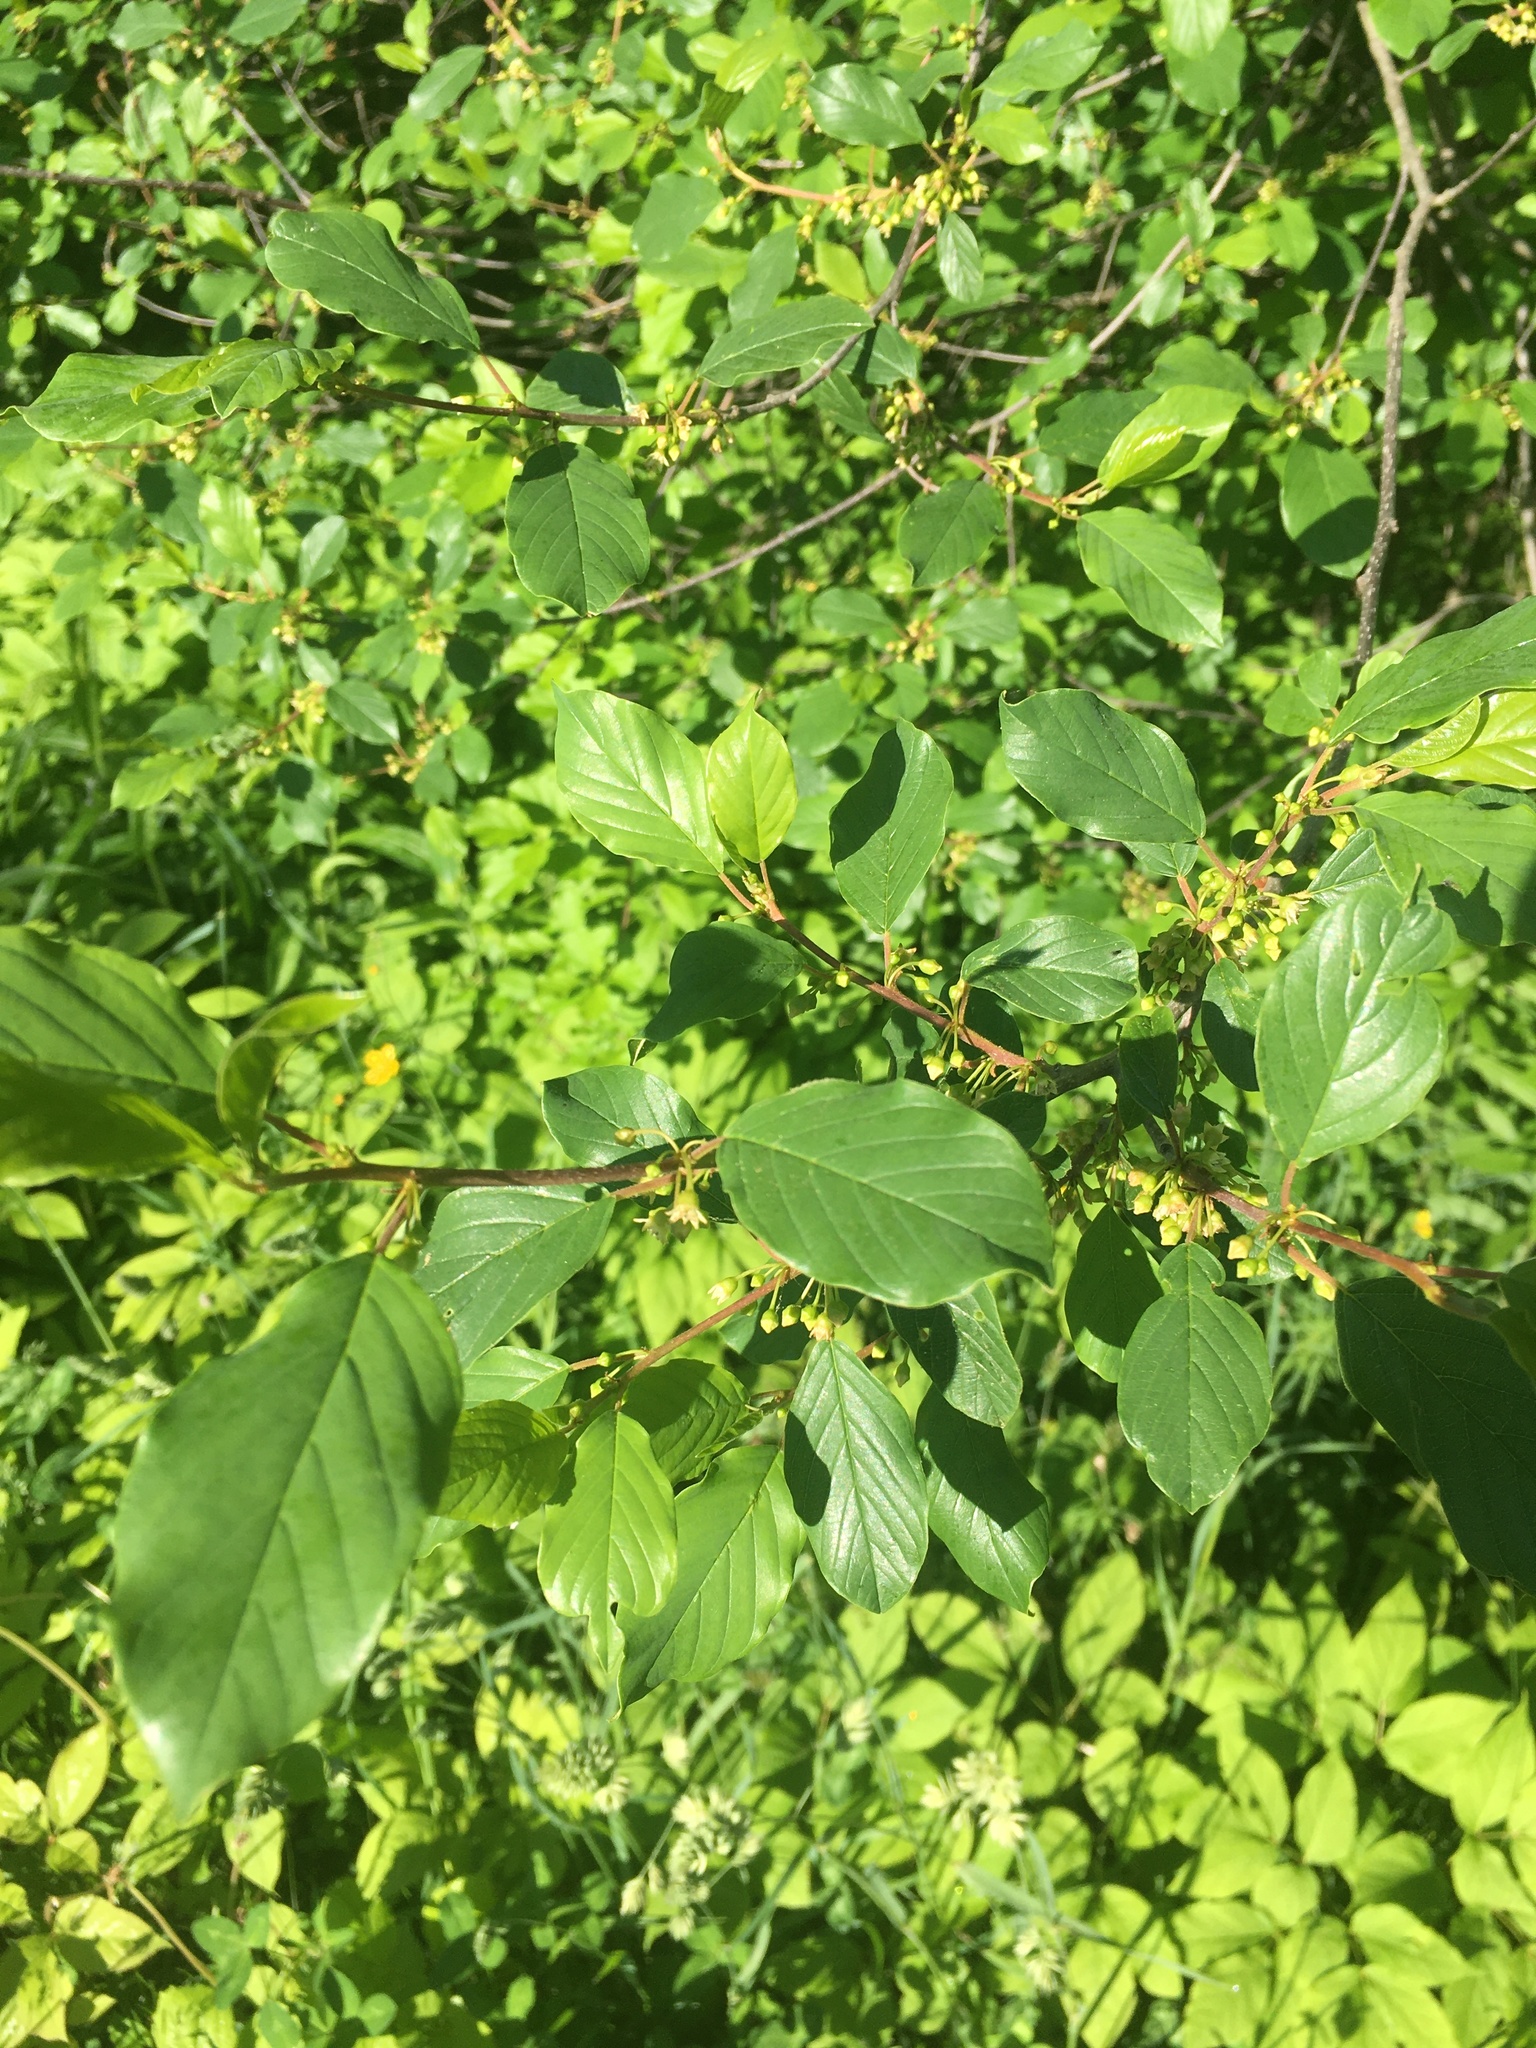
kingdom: Plantae
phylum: Tracheophyta
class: Magnoliopsida
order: Rosales
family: Rhamnaceae
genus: Frangula
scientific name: Frangula alnus
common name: Alder buckthorn
